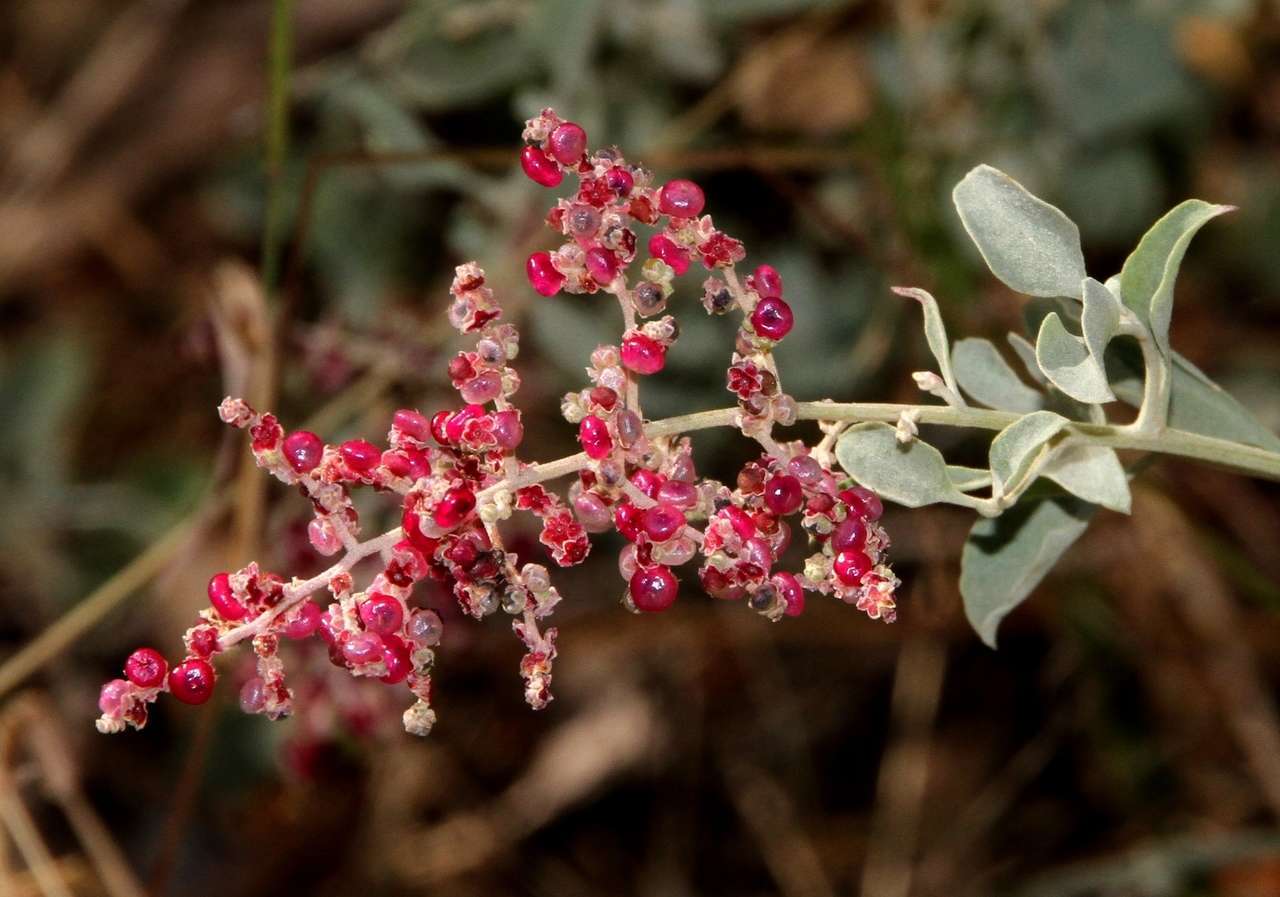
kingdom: Plantae
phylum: Tracheophyta
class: Magnoliopsida
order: Caryophyllales
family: Amaranthaceae
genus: Chenopodium
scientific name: Chenopodium parabolicum
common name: Old-man-saltbush
